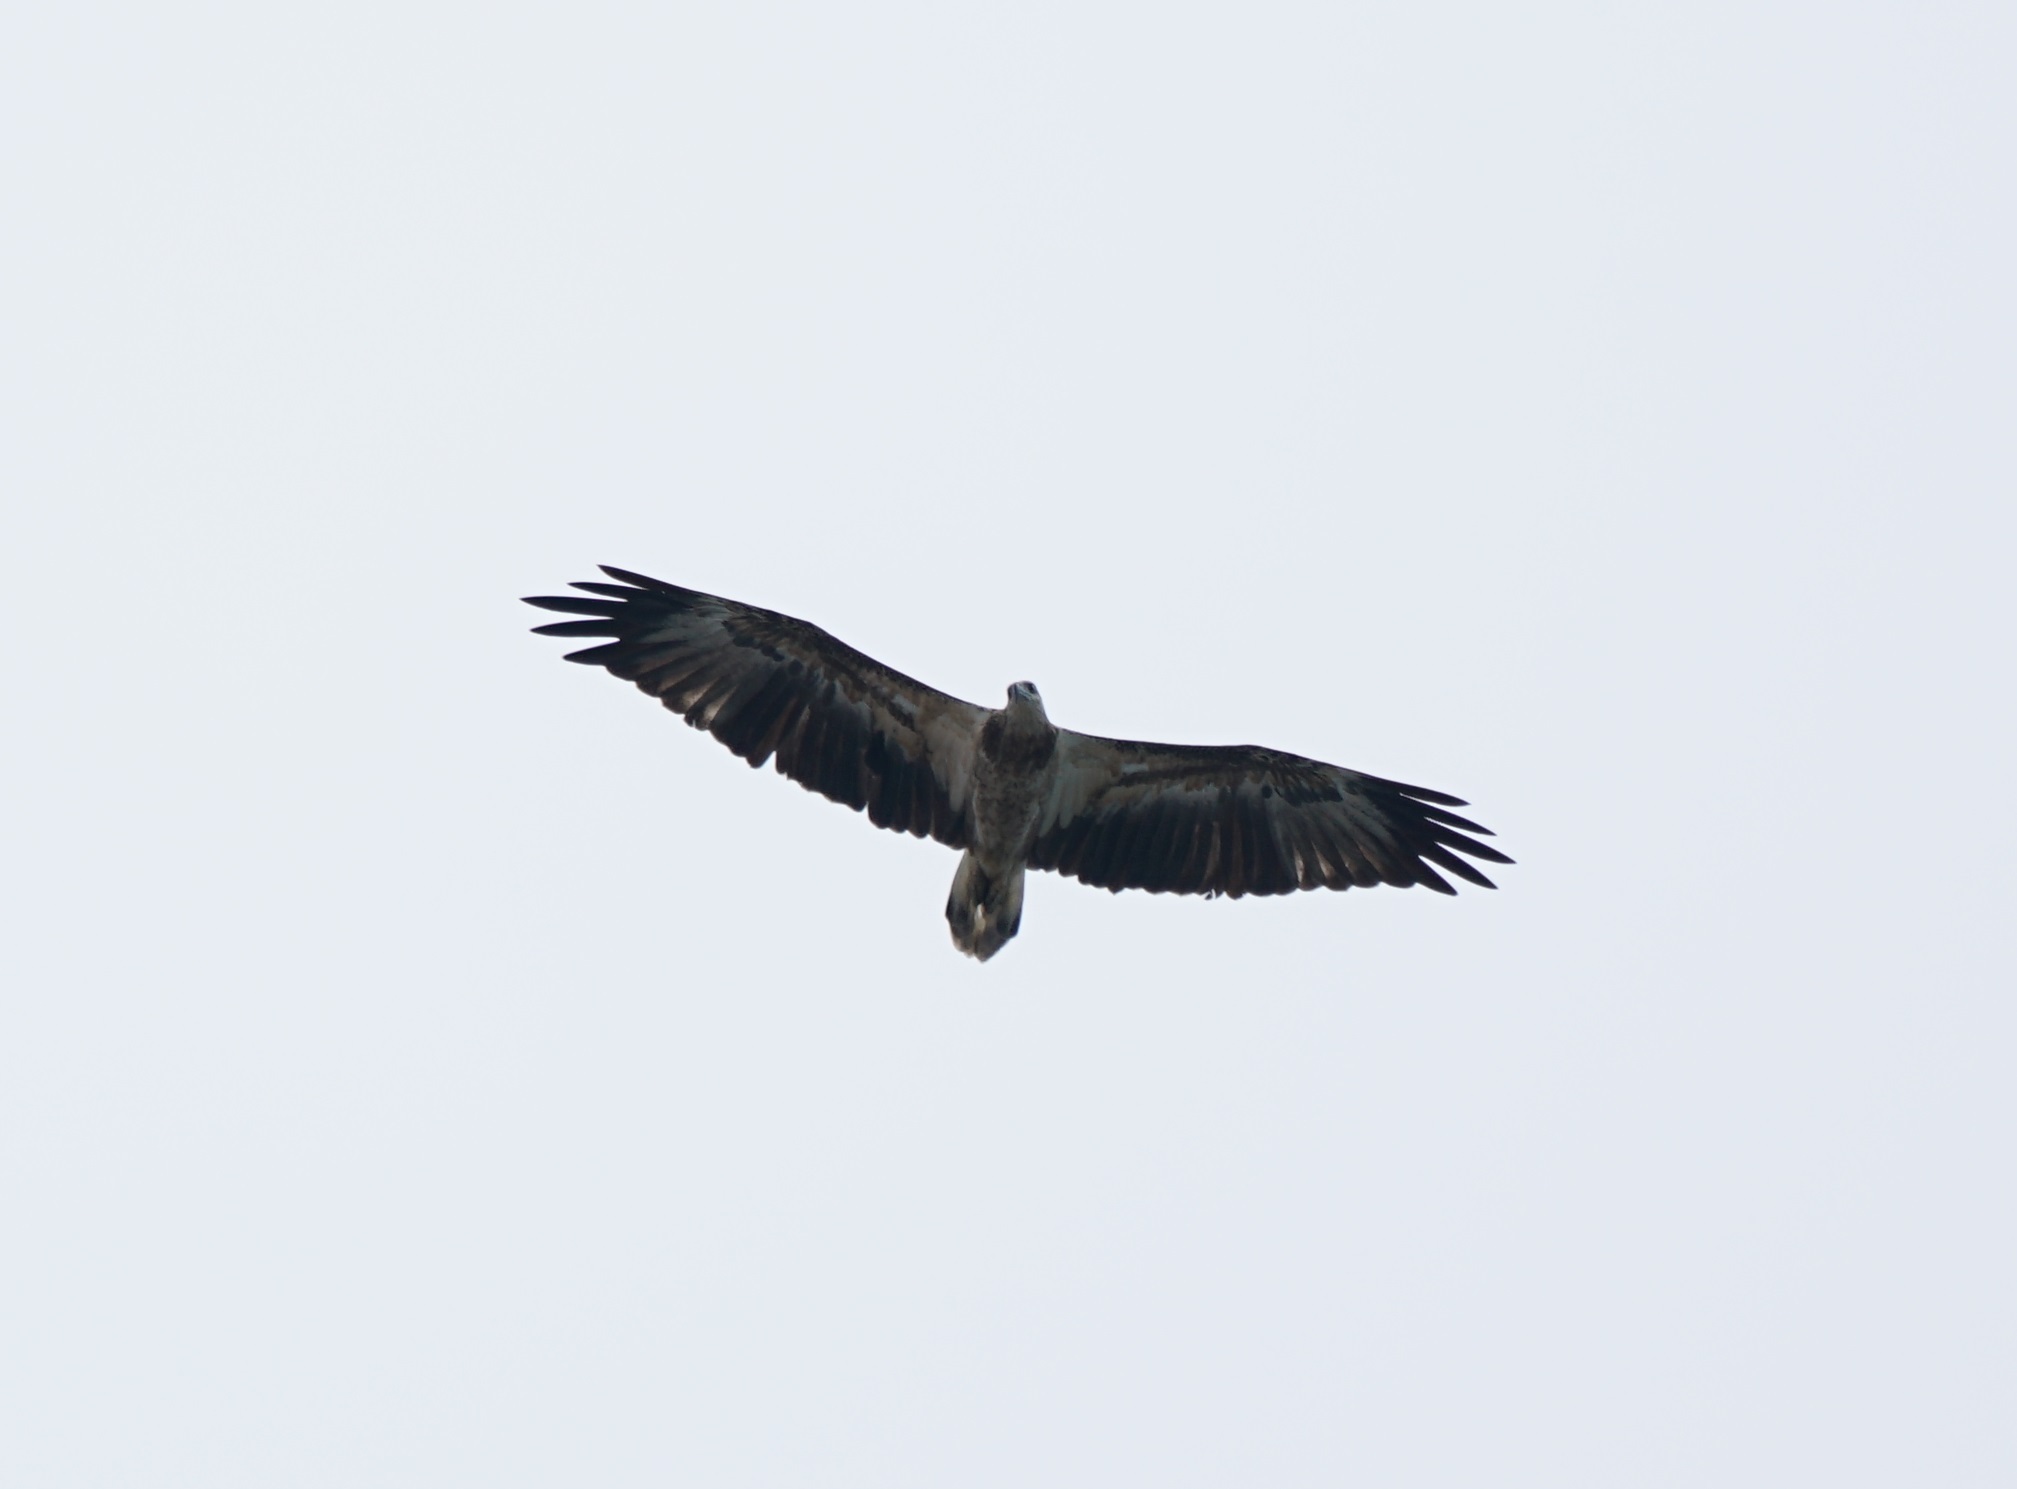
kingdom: Animalia
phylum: Chordata
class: Aves
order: Accipitriformes
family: Accipitridae
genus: Haliaeetus
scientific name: Haliaeetus leucogaster
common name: White-bellied sea eagle
